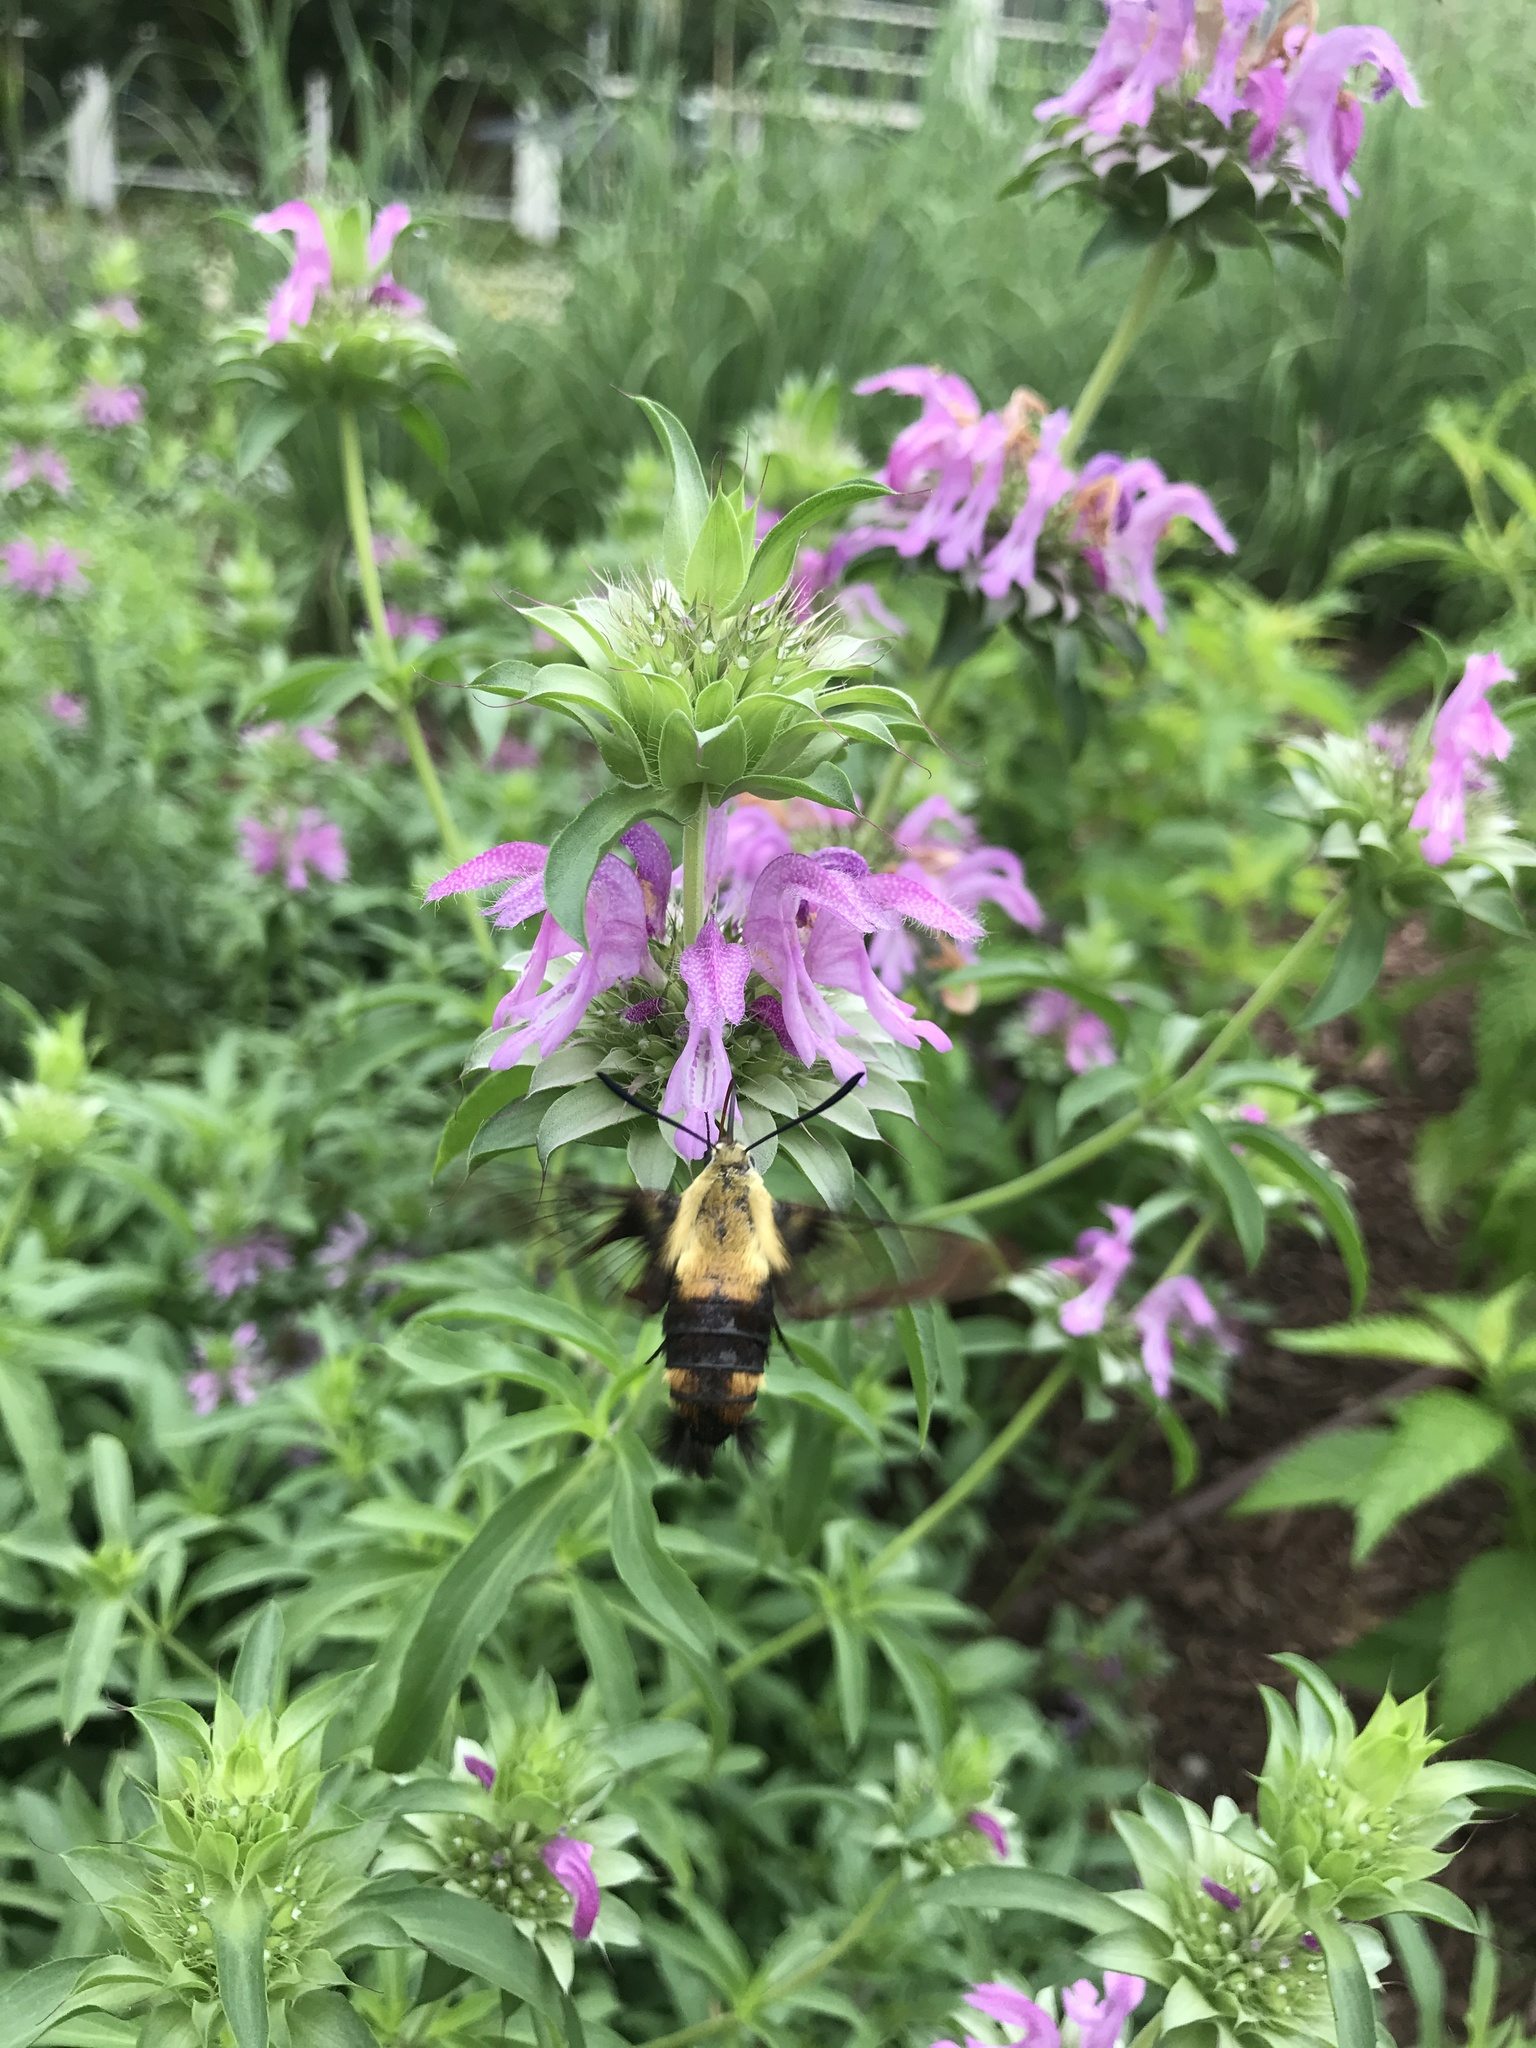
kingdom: Animalia
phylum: Arthropoda
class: Insecta
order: Lepidoptera
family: Sphingidae
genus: Hemaris
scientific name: Hemaris diffinis
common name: Bumblebee moth
